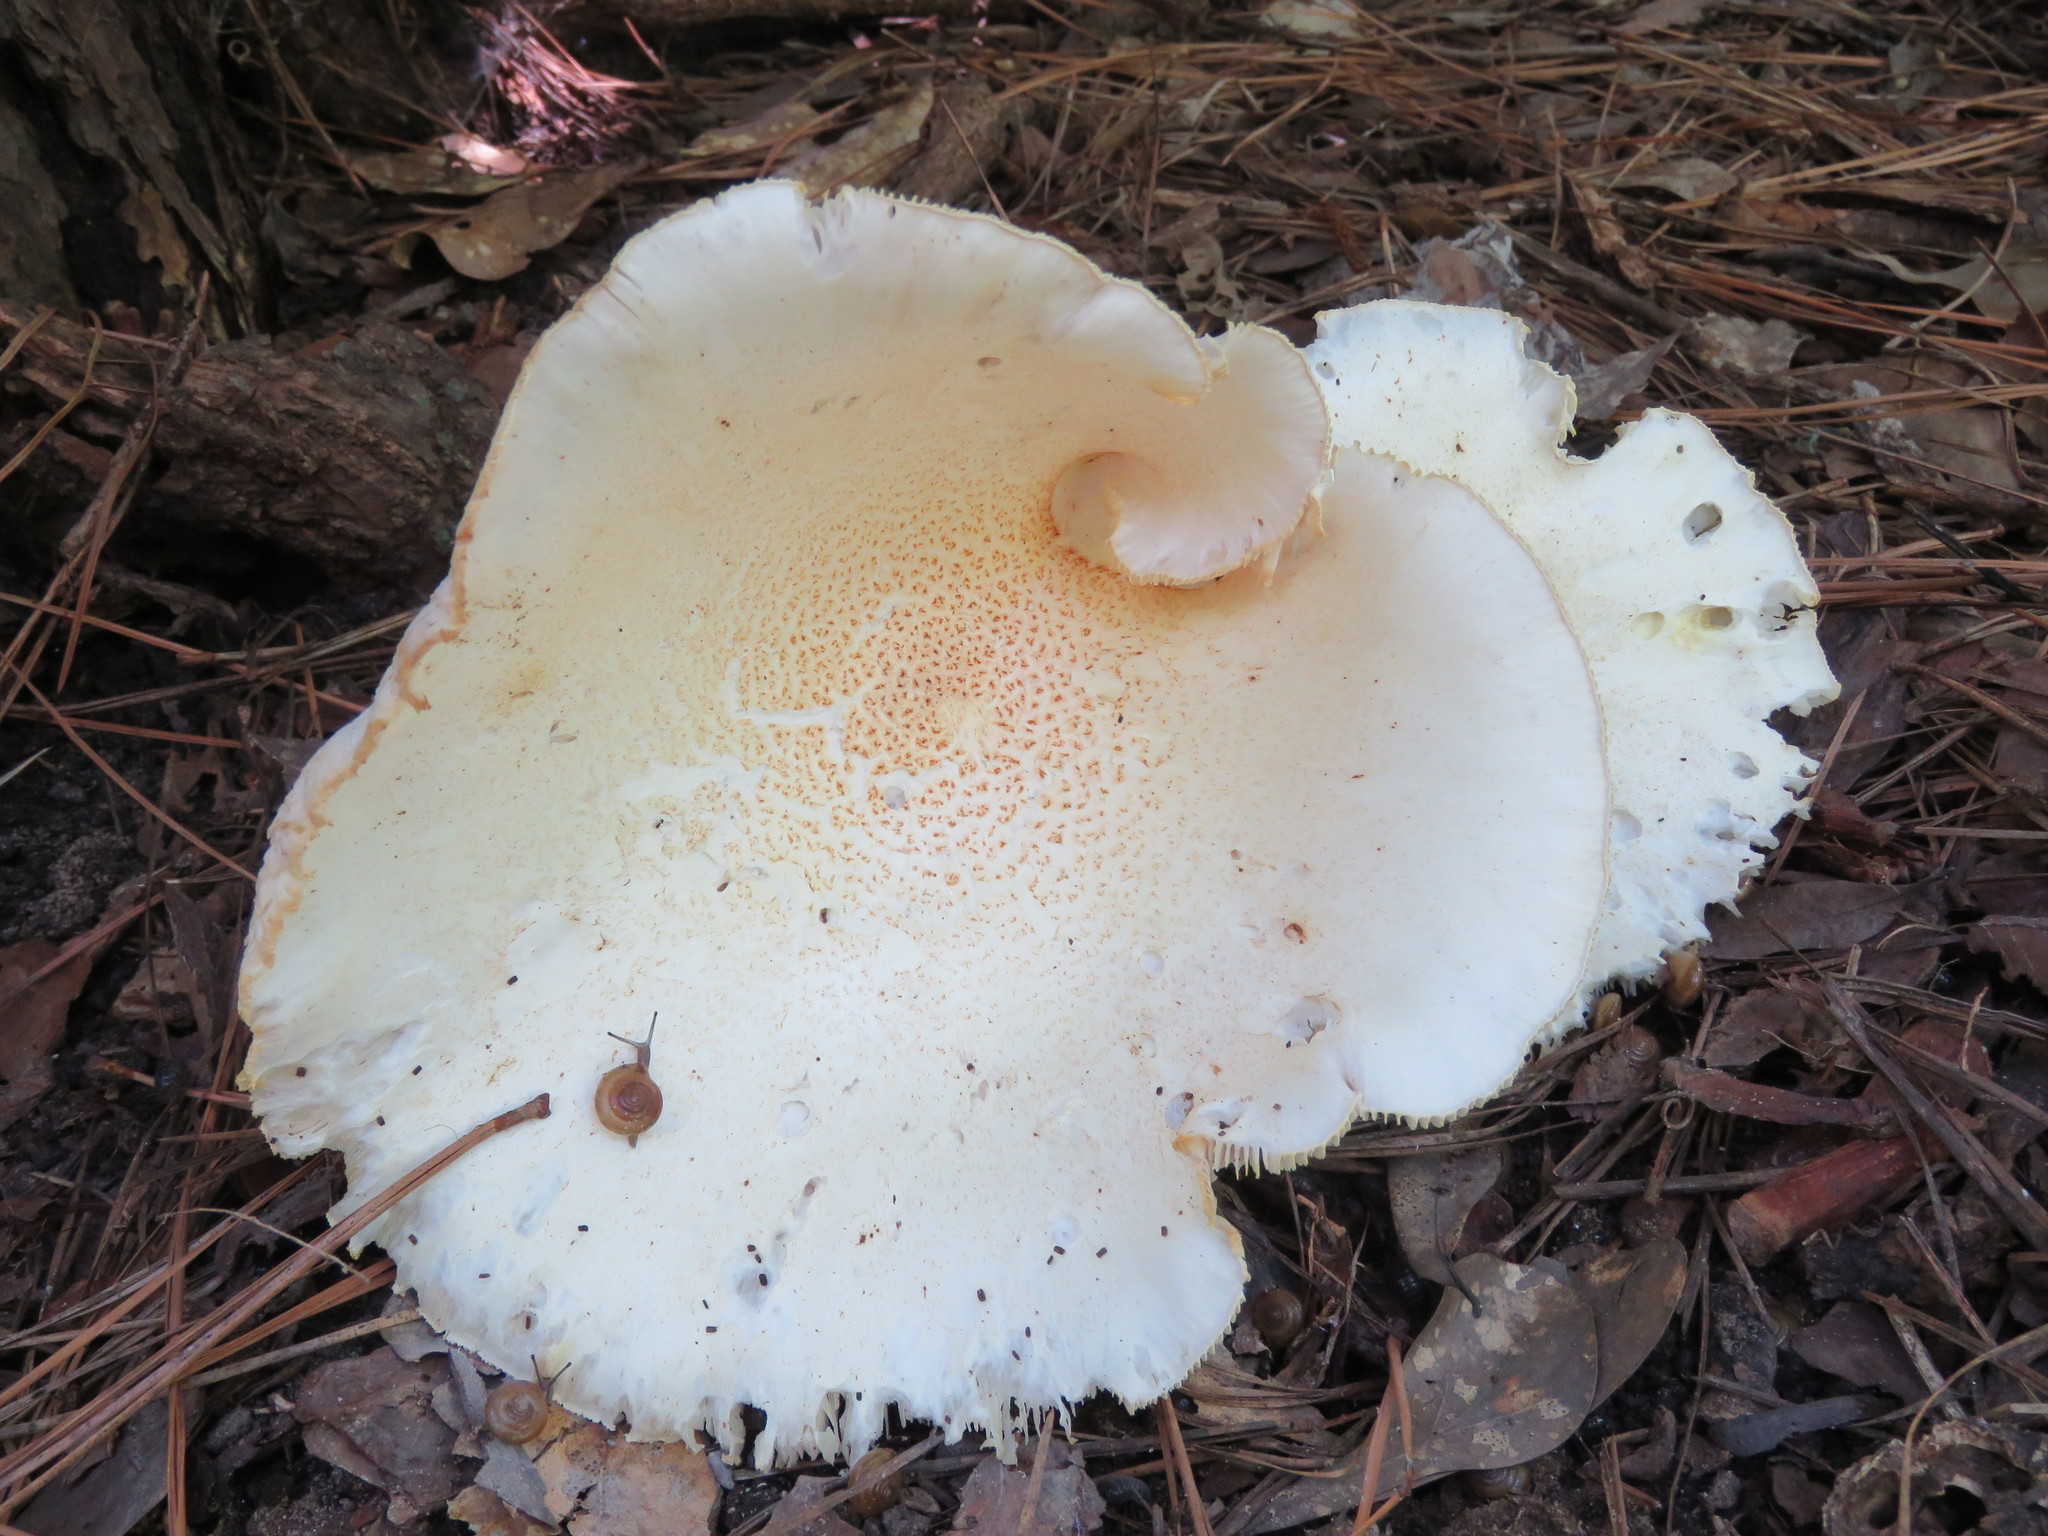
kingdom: Fungi
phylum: Basidiomycota
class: Agaricomycetes
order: Gloeophyllales
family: Gloeophyllaceae
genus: Neolentinus
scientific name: Neolentinus lepideus
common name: Scaly sawgill
